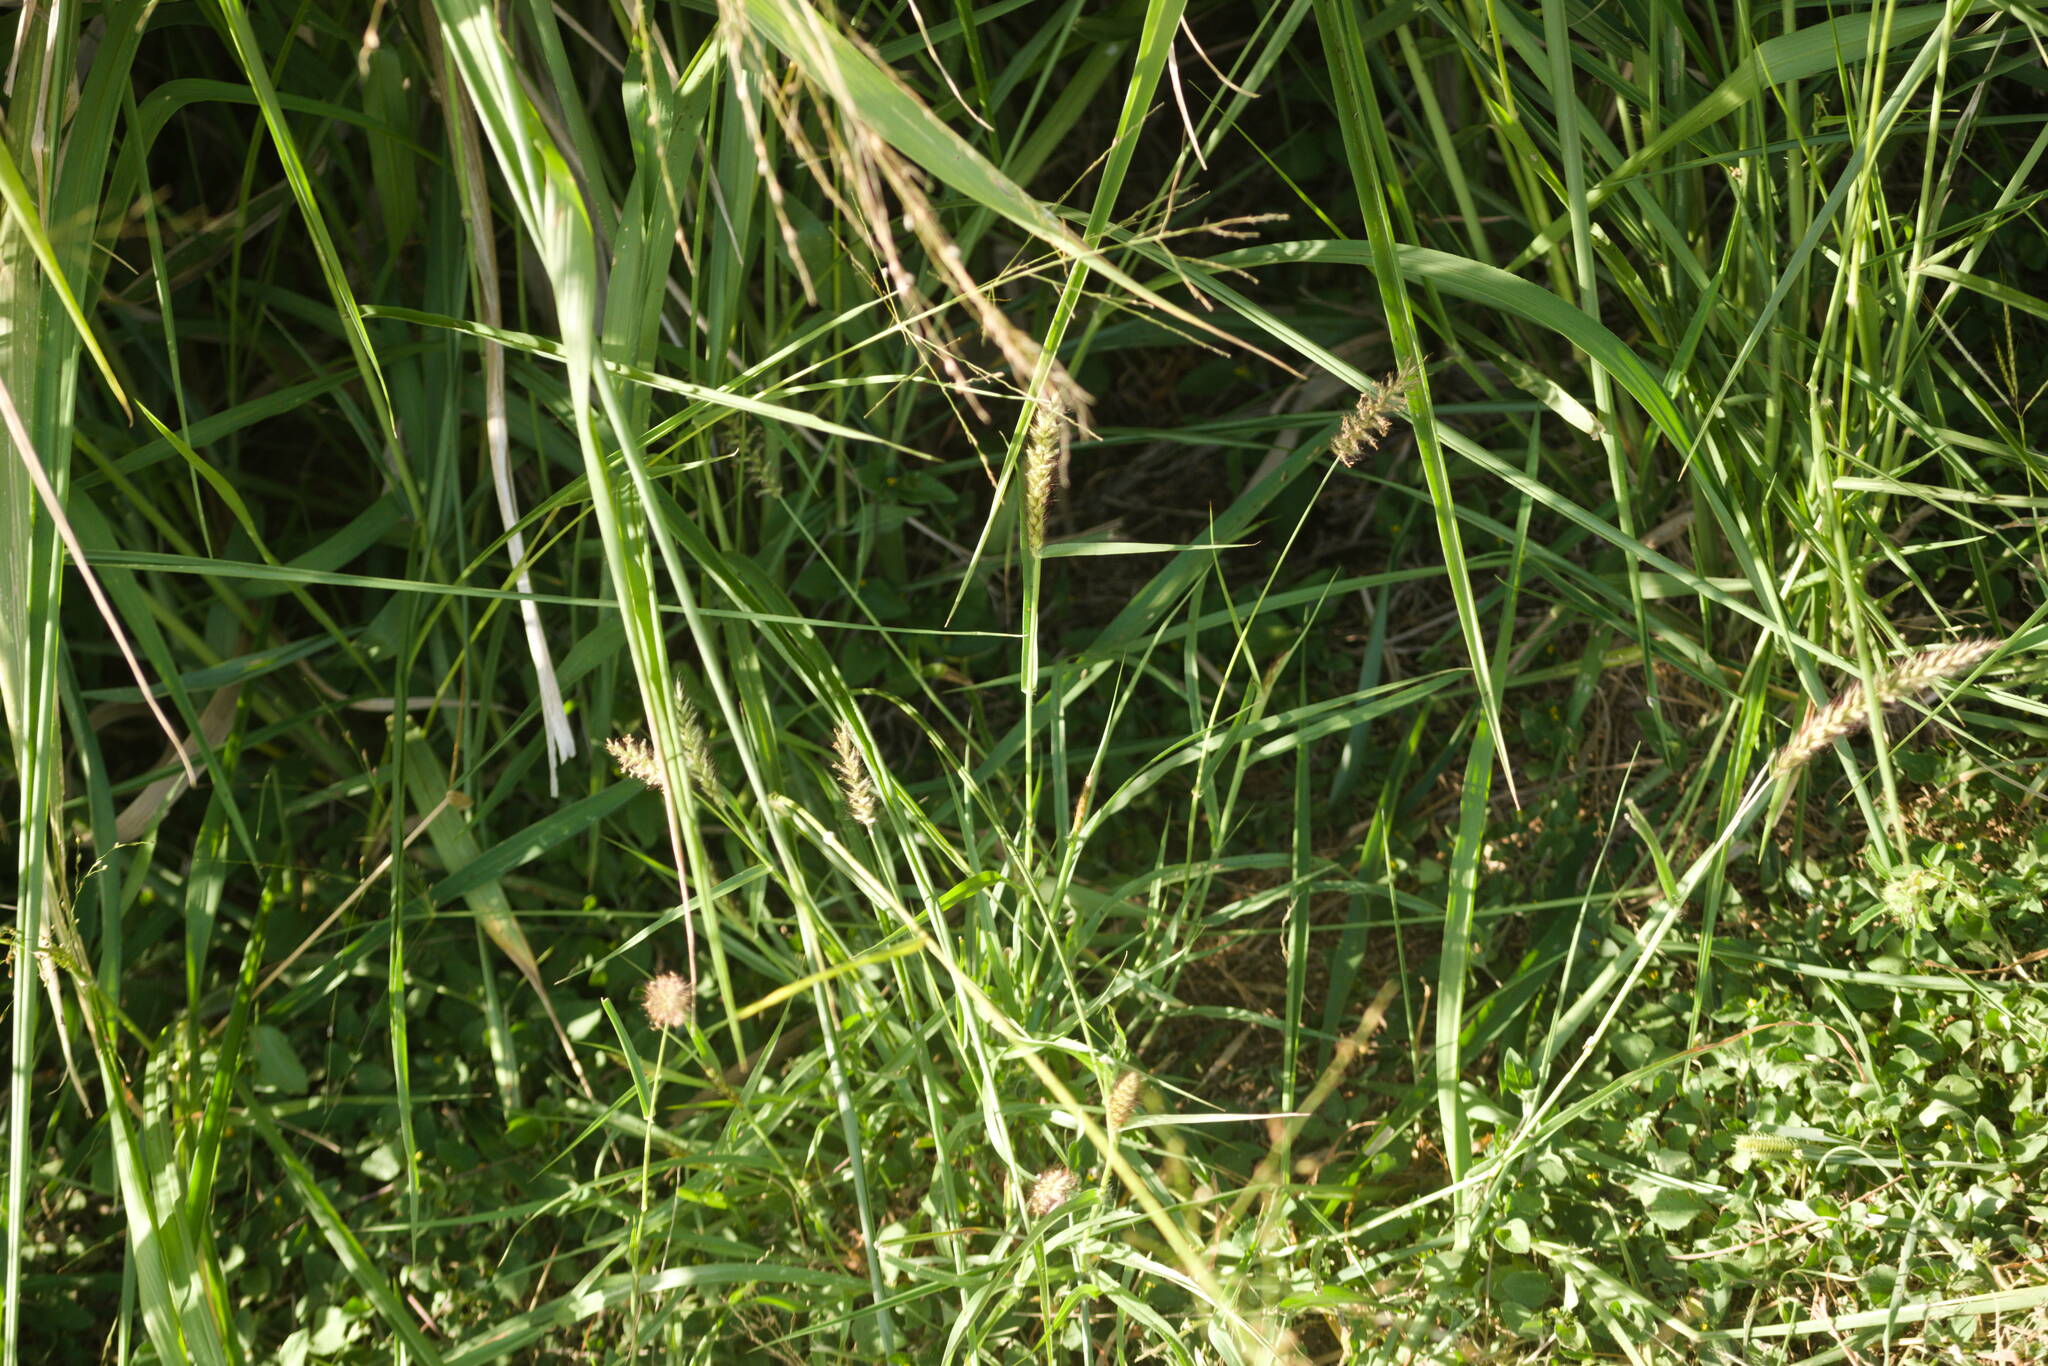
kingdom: Plantae
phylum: Tracheophyta
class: Liliopsida
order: Poales
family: Poaceae
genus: Cenchrus
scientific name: Cenchrus ciliaris
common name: Buffelgrass
